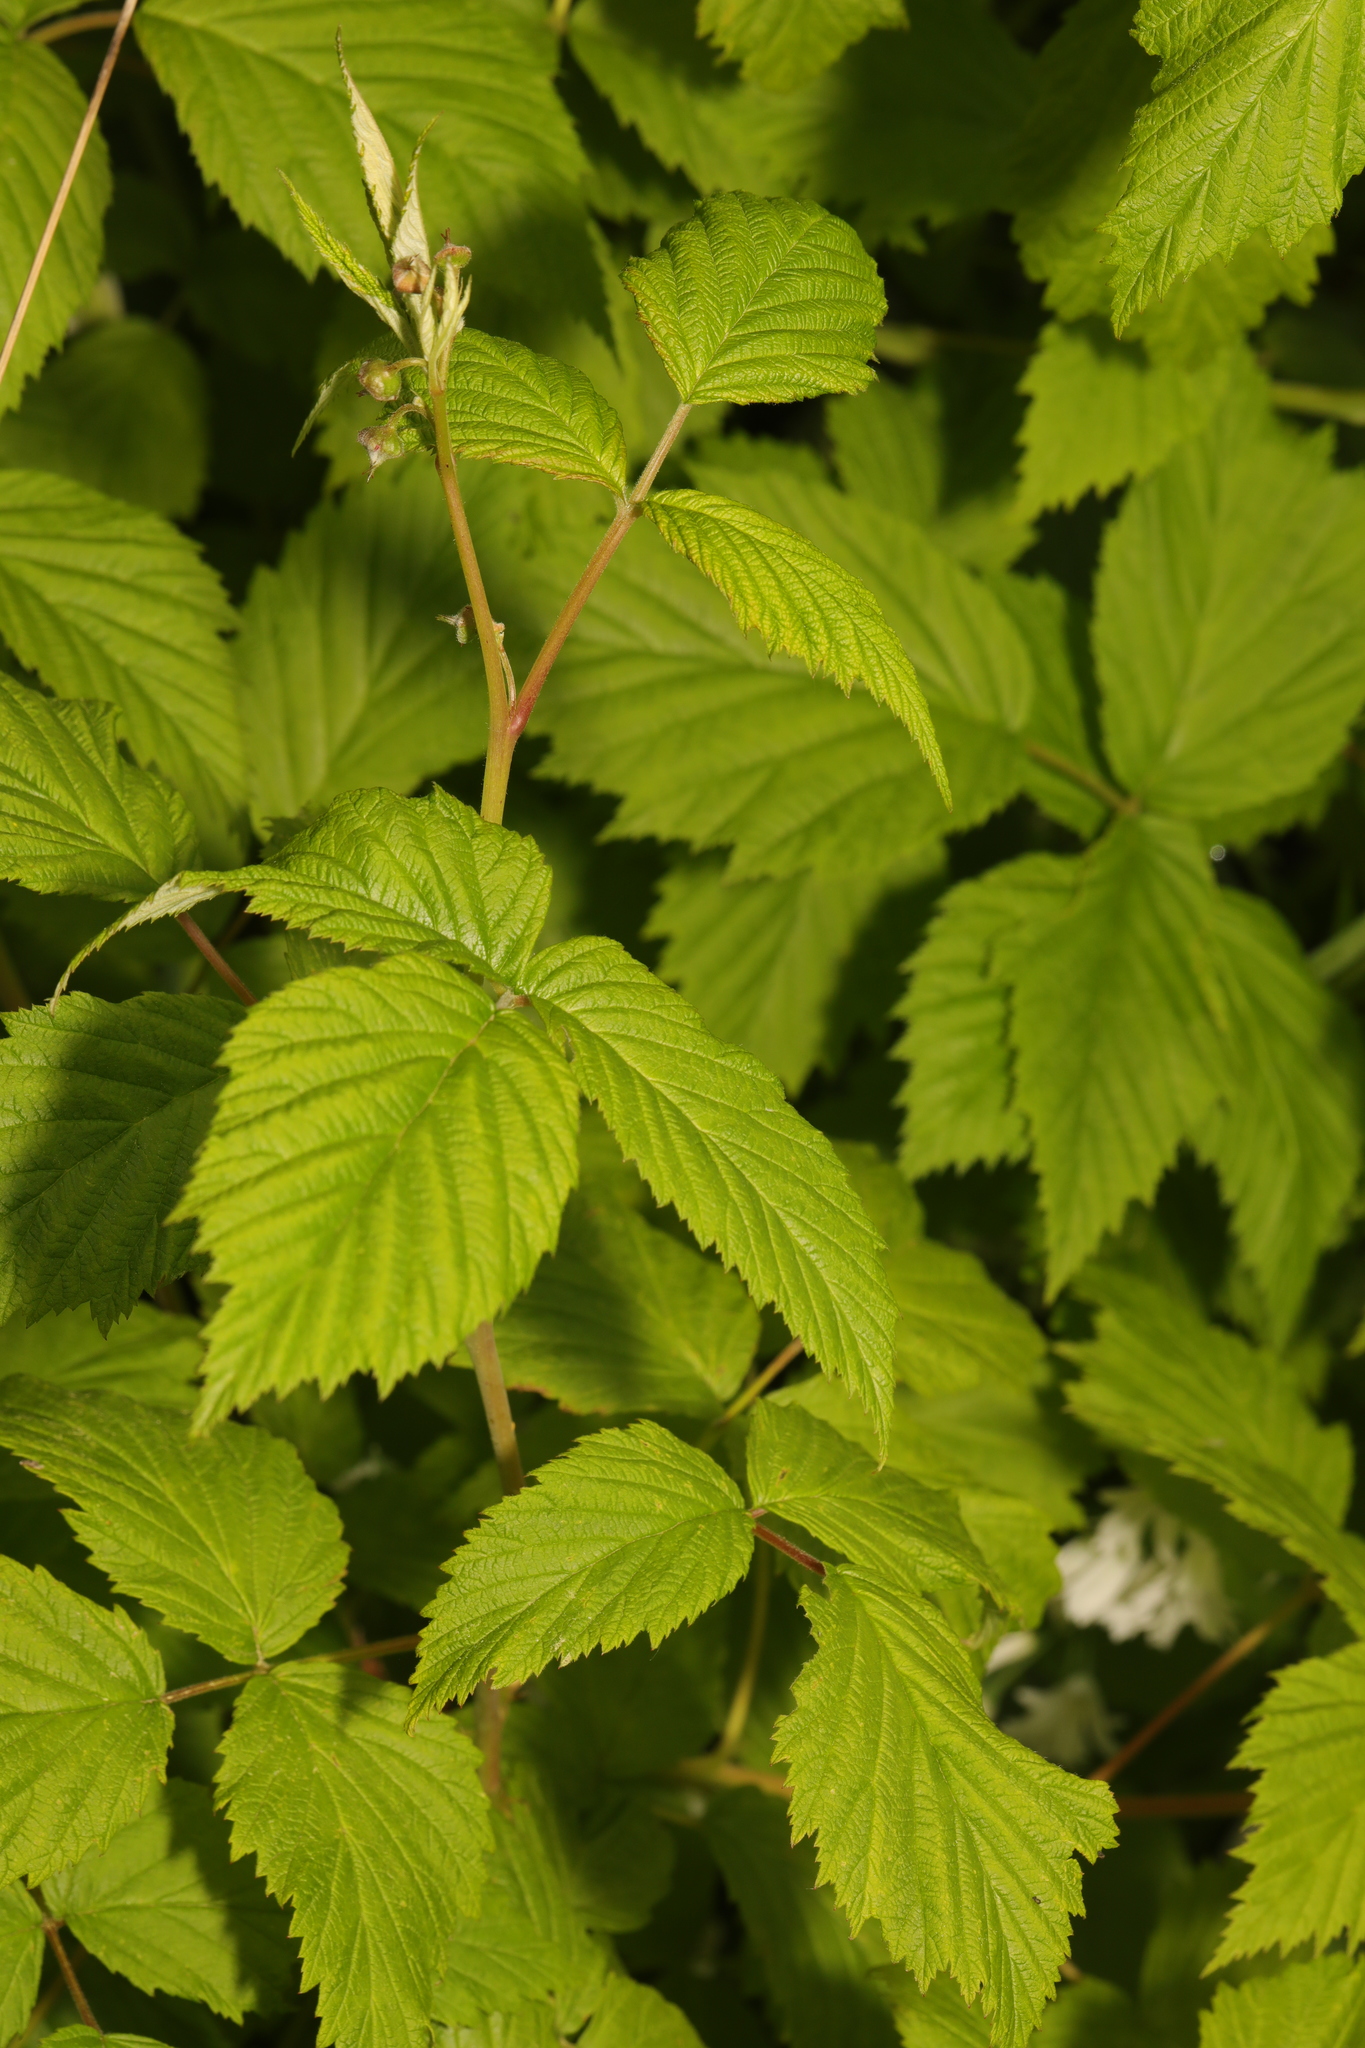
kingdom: Plantae
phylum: Tracheophyta
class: Magnoliopsida
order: Rosales
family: Rosaceae
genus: Rubus
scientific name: Rubus idaeus
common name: Raspberry
